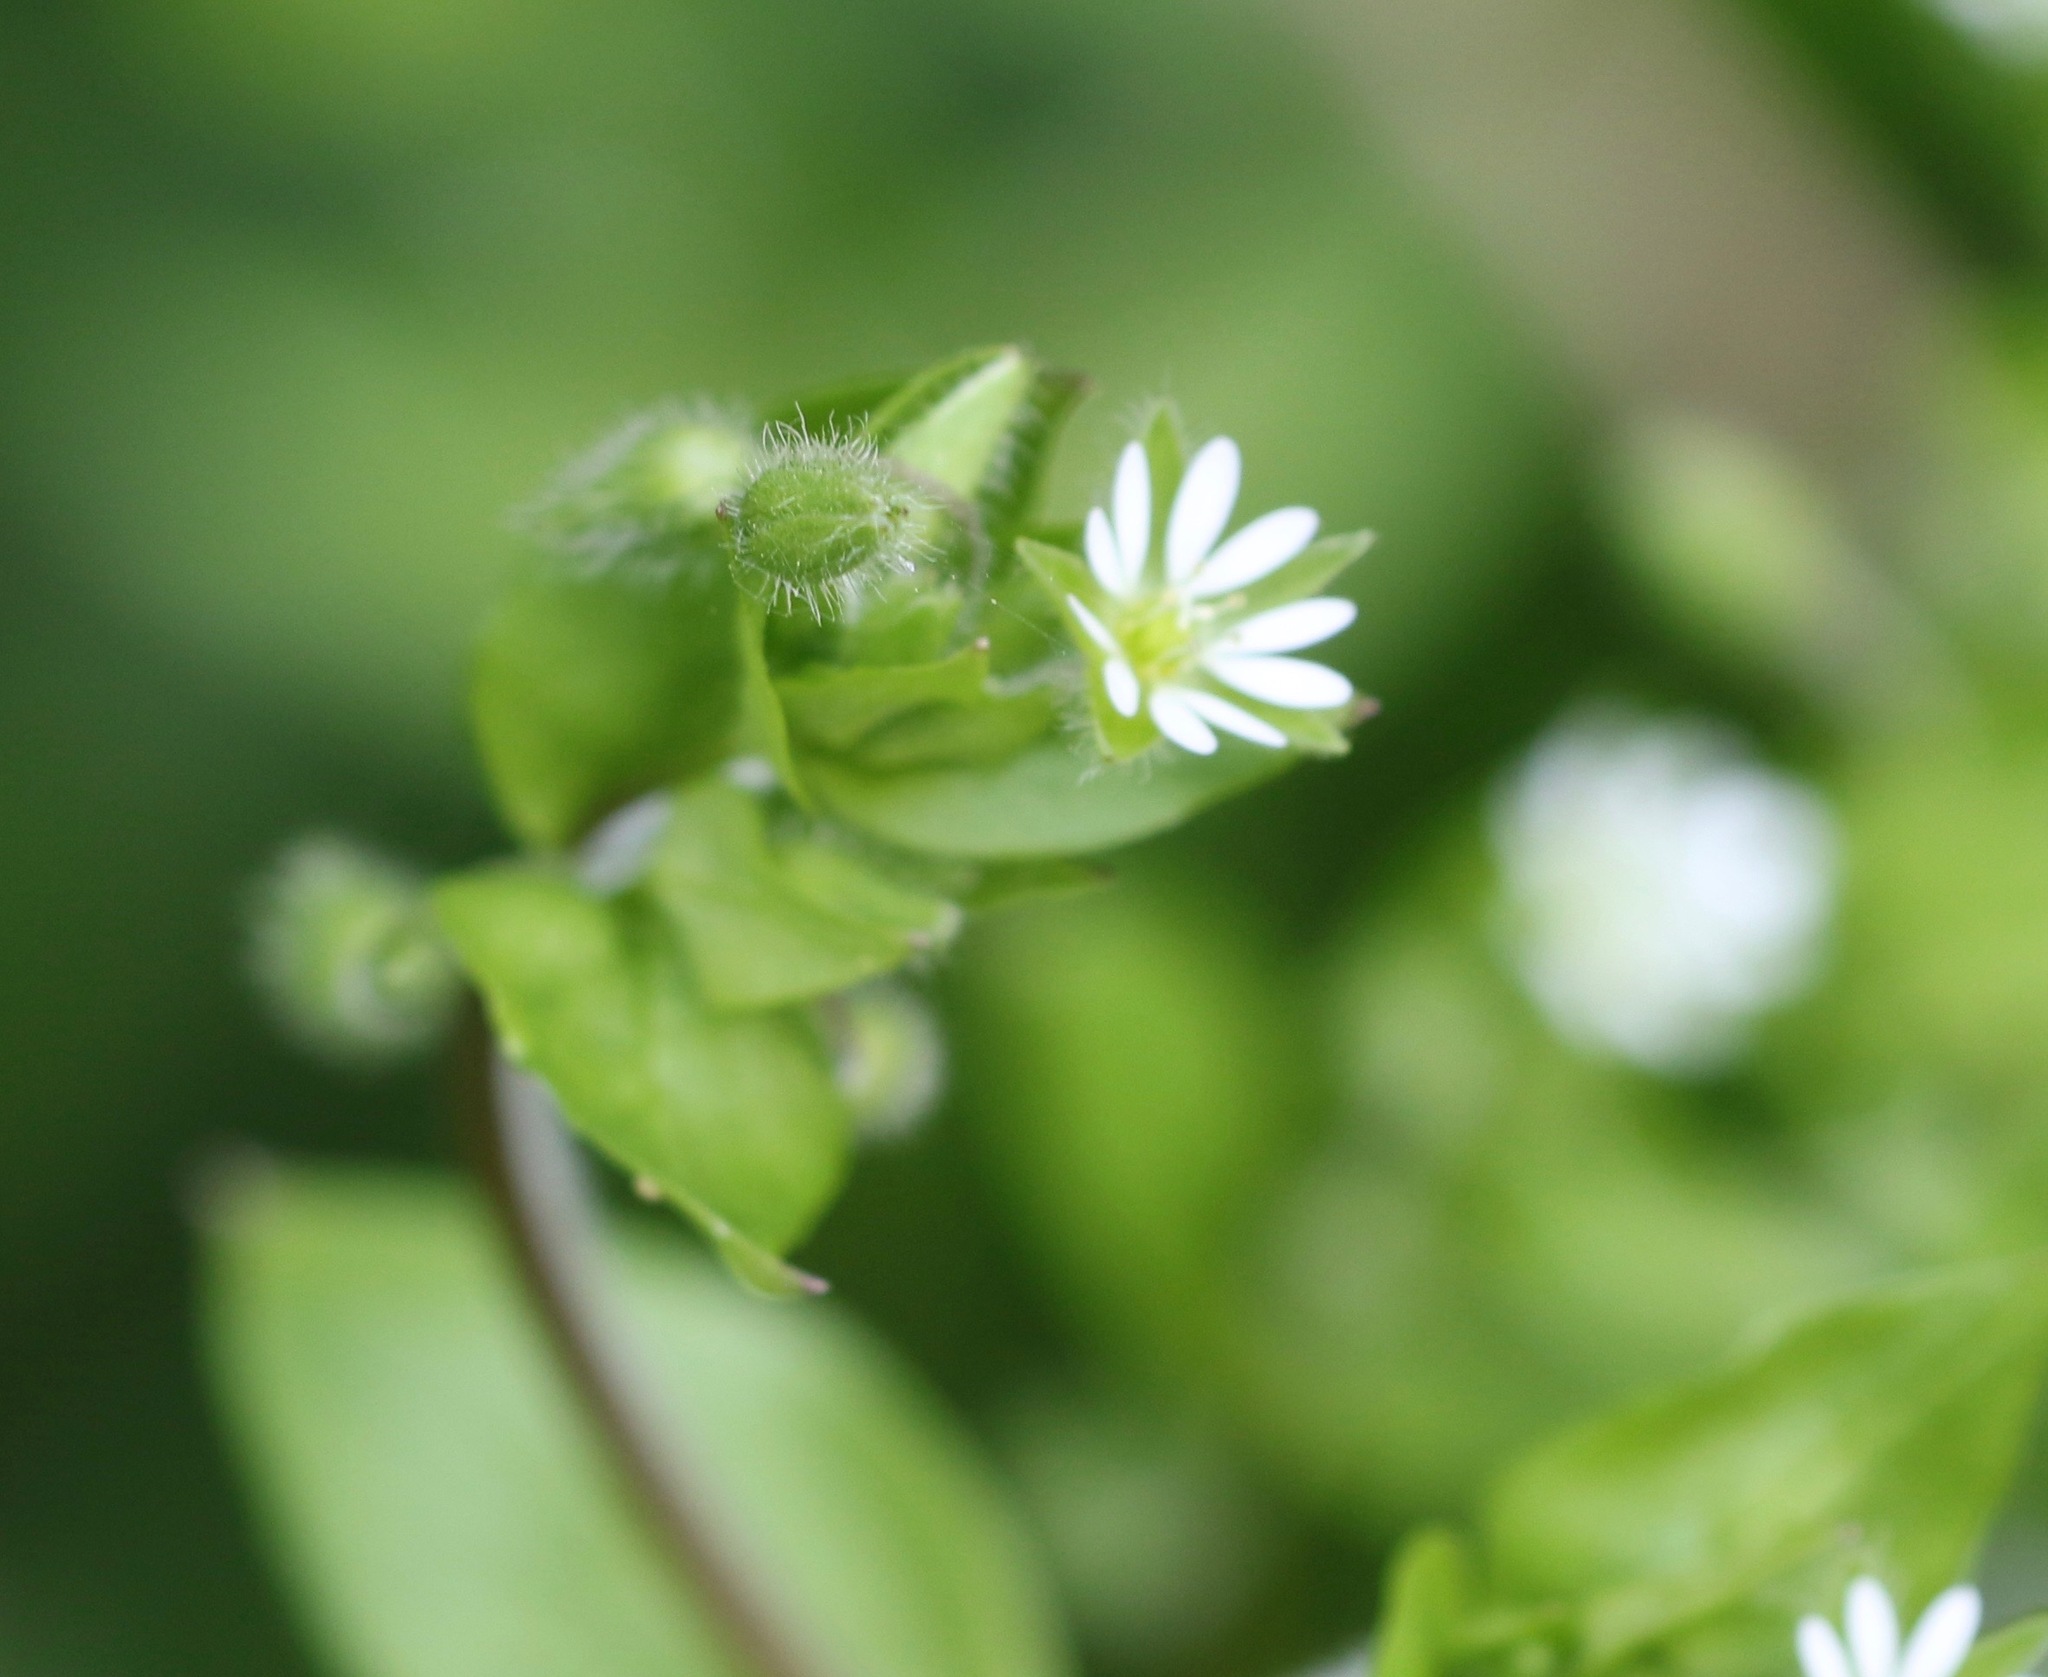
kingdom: Plantae
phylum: Tracheophyta
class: Magnoliopsida
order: Caryophyllales
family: Caryophyllaceae
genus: Stellaria
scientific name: Stellaria media
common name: Common chickweed
